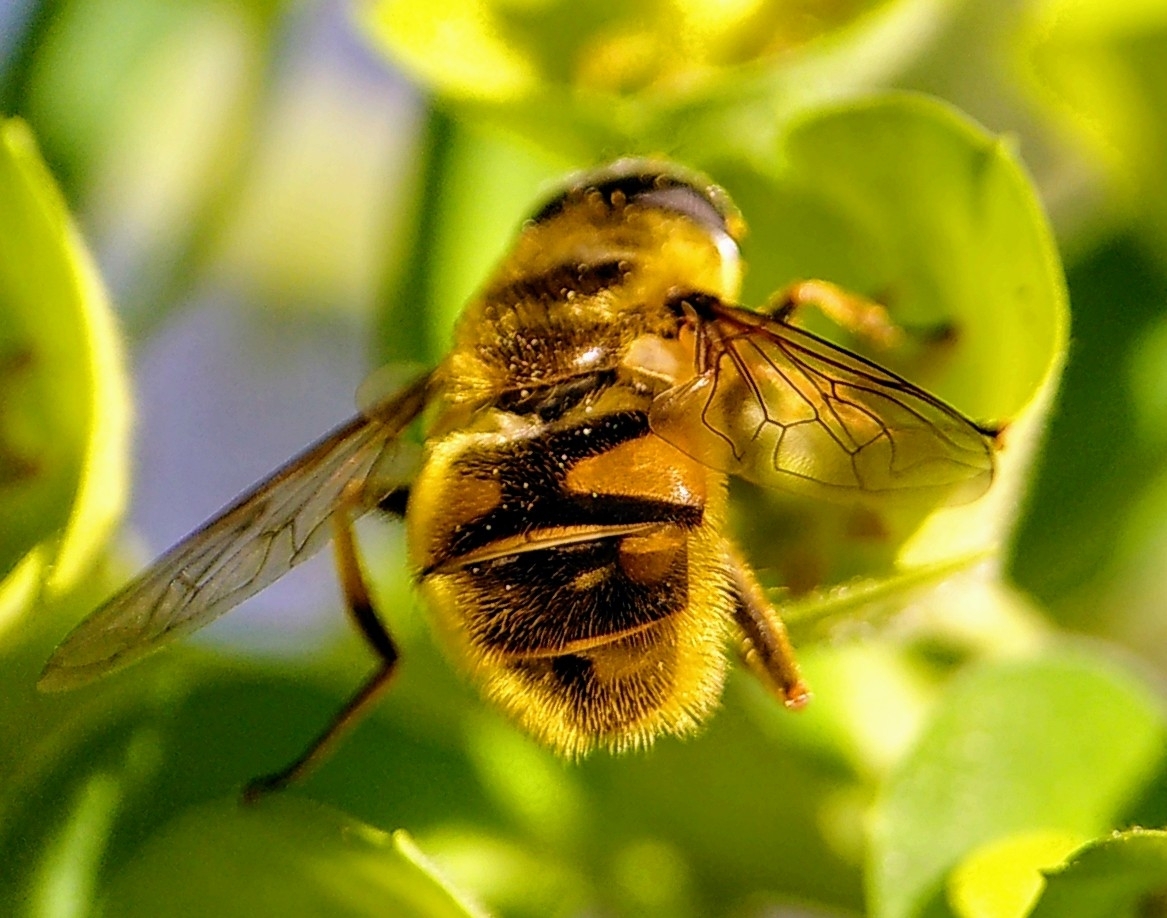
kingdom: Animalia
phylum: Arthropoda
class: Insecta
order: Diptera
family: Syrphidae
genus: Myathropa
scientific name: Myathropa florea
